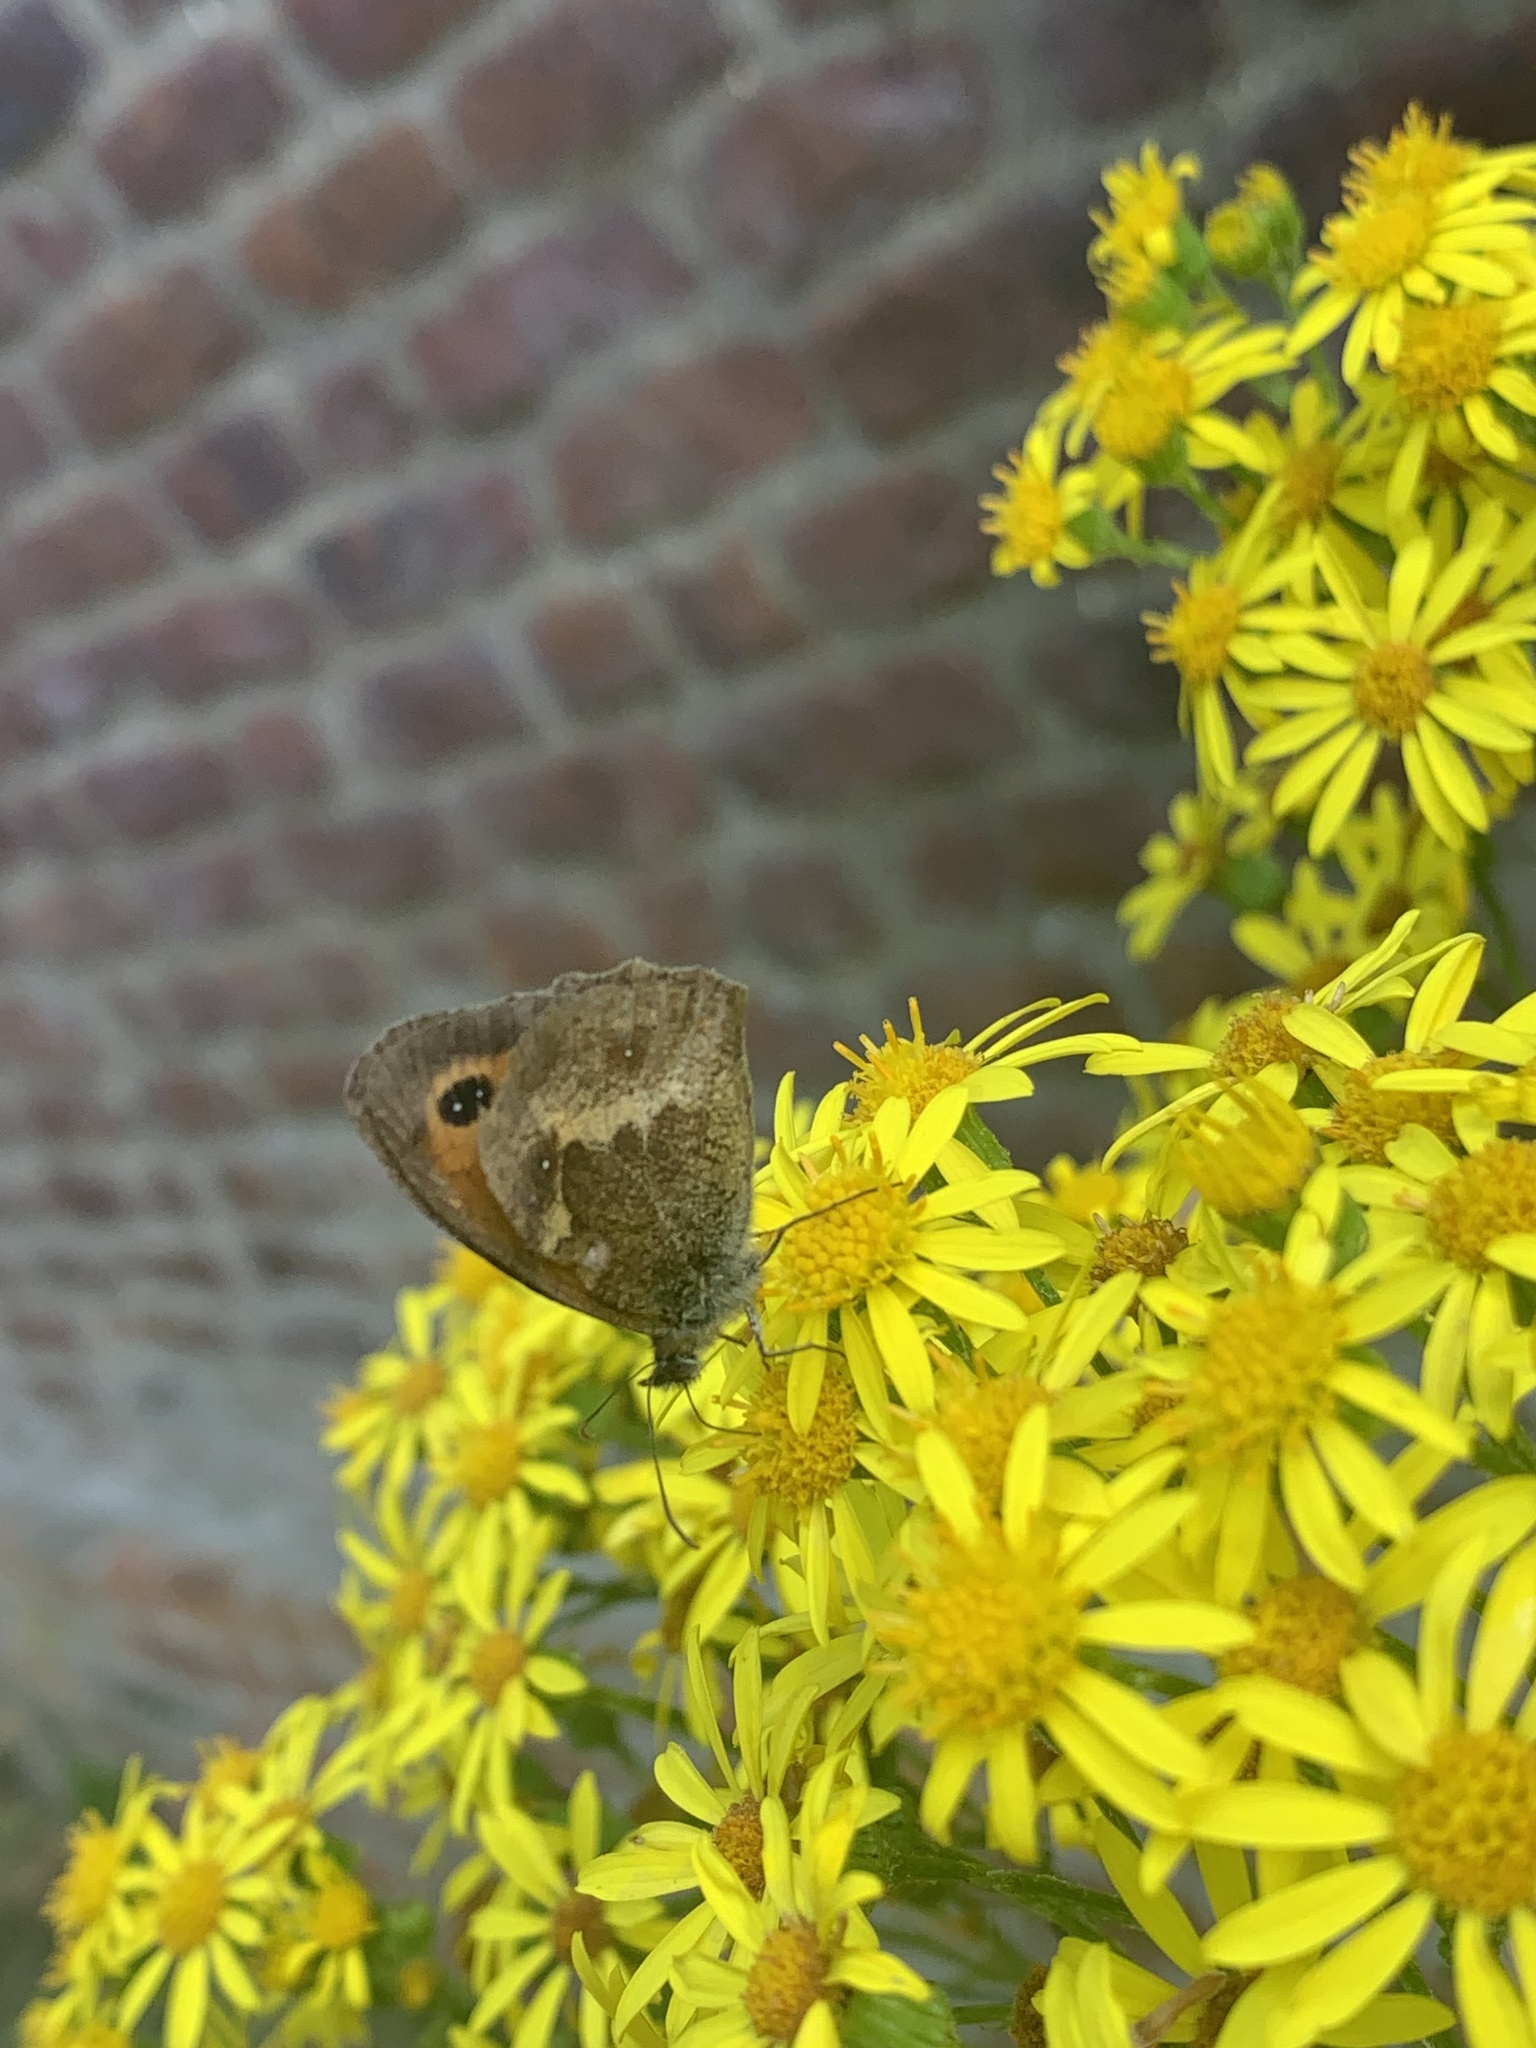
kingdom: Animalia
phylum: Arthropoda
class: Insecta
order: Lepidoptera
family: Nymphalidae
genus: Pyronia
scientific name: Pyronia tithonus
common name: Gatekeeper
